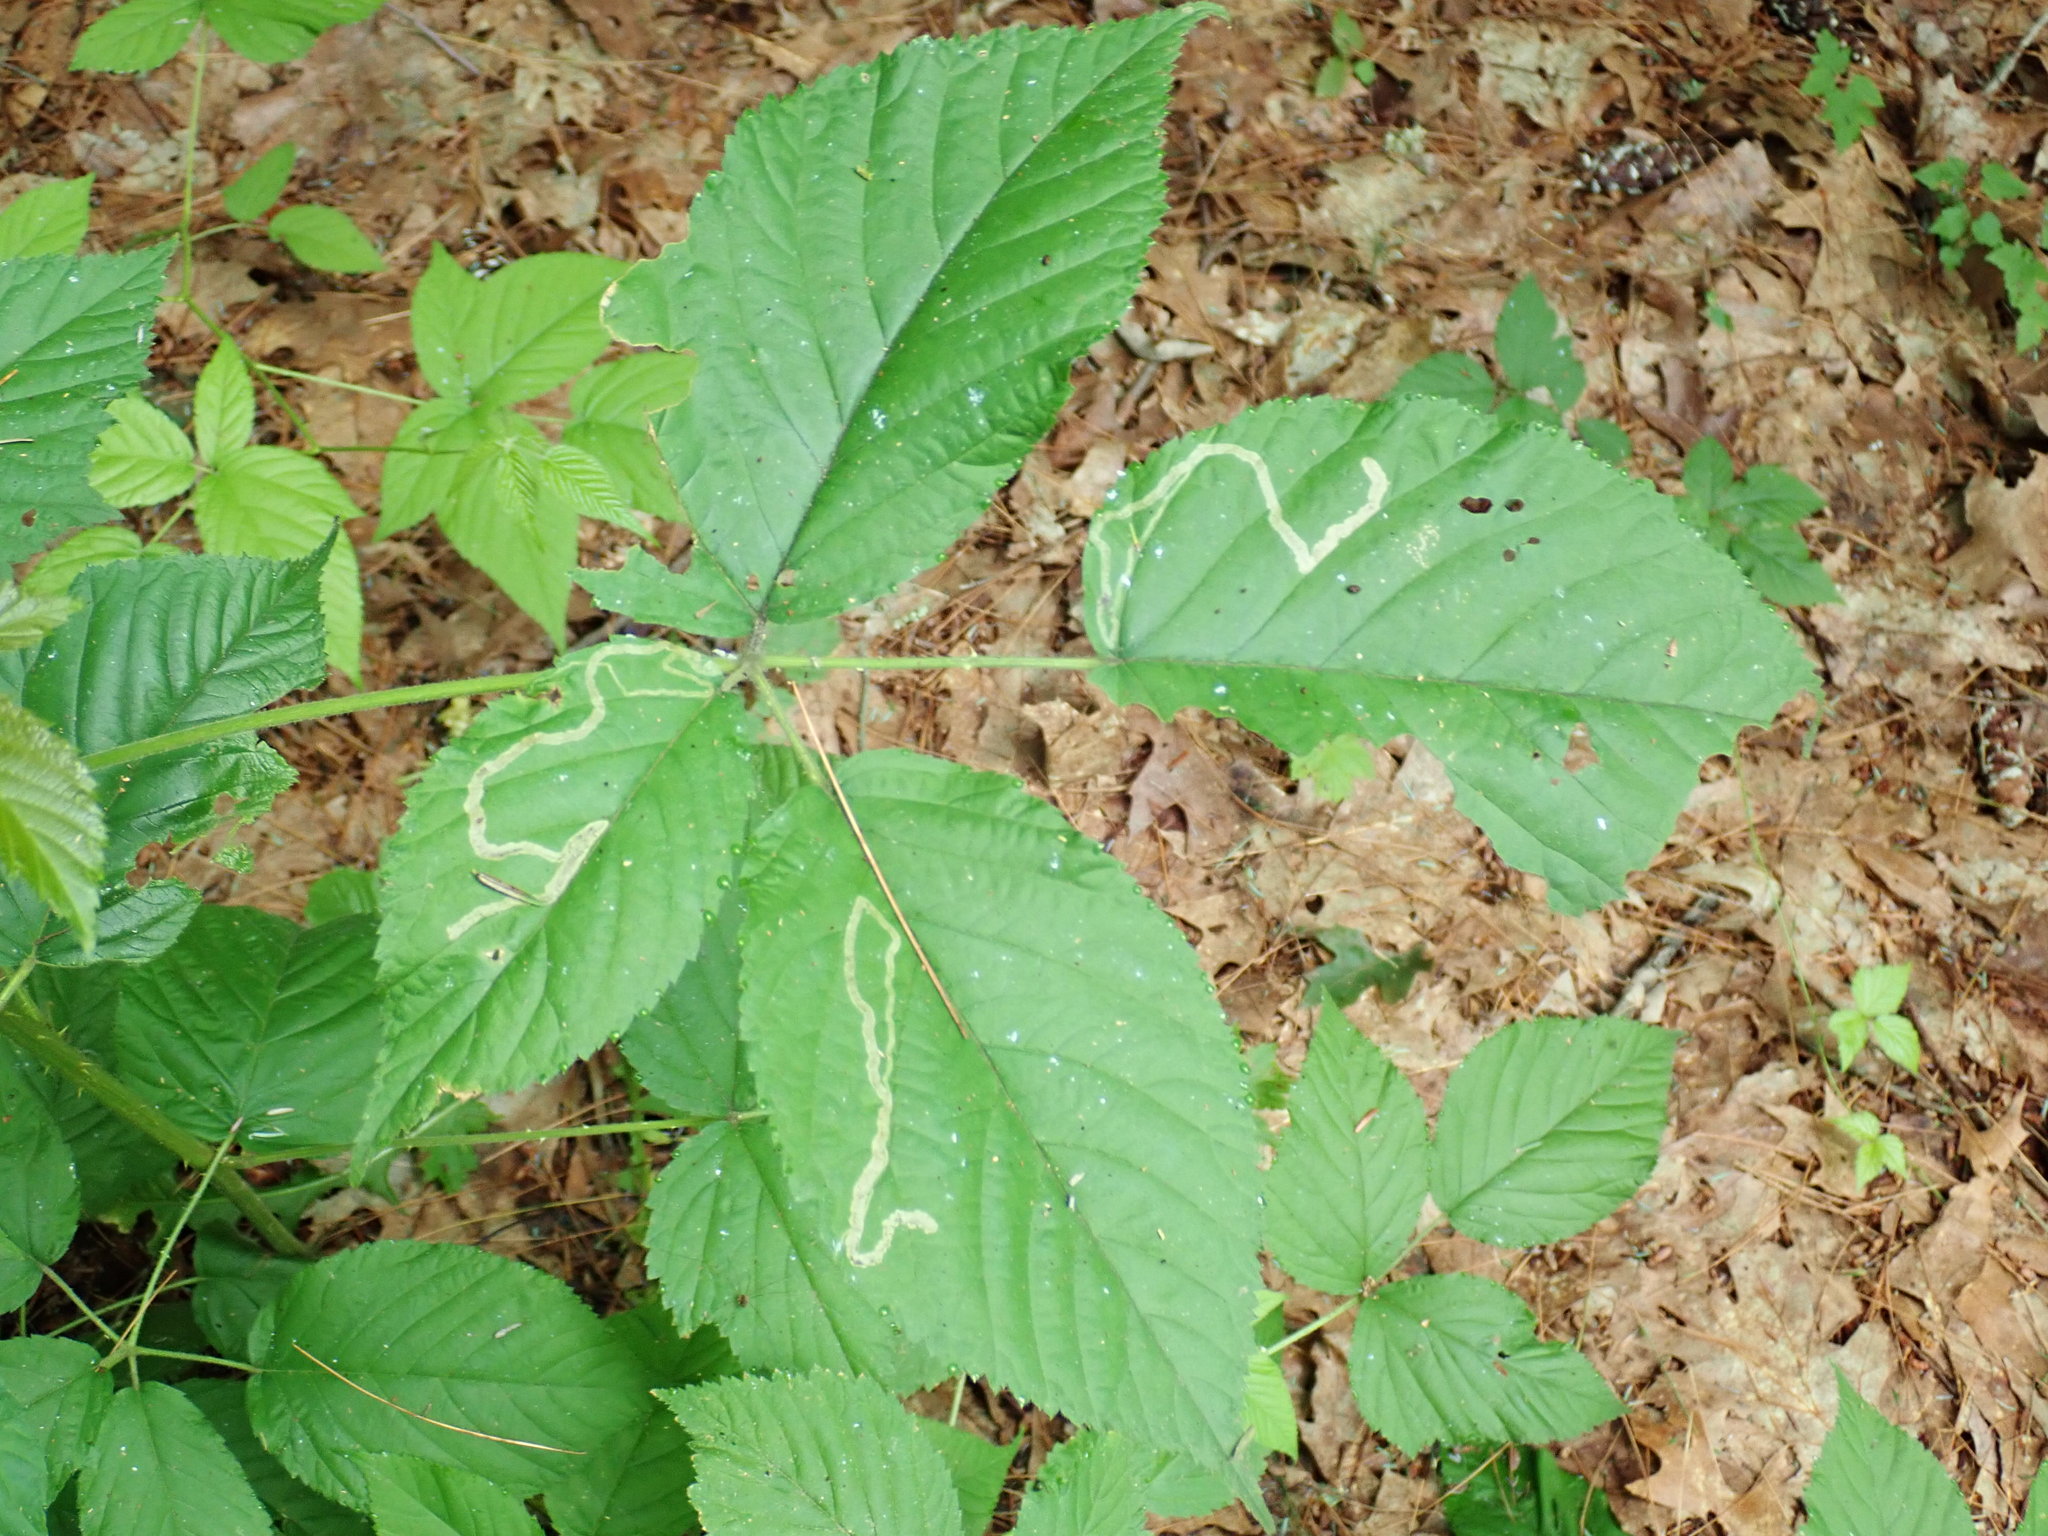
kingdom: Animalia
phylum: Arthropoda
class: Insecta
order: Diptera
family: Agromyzidae
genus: Agromyza
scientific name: Agromyza vockerothi
